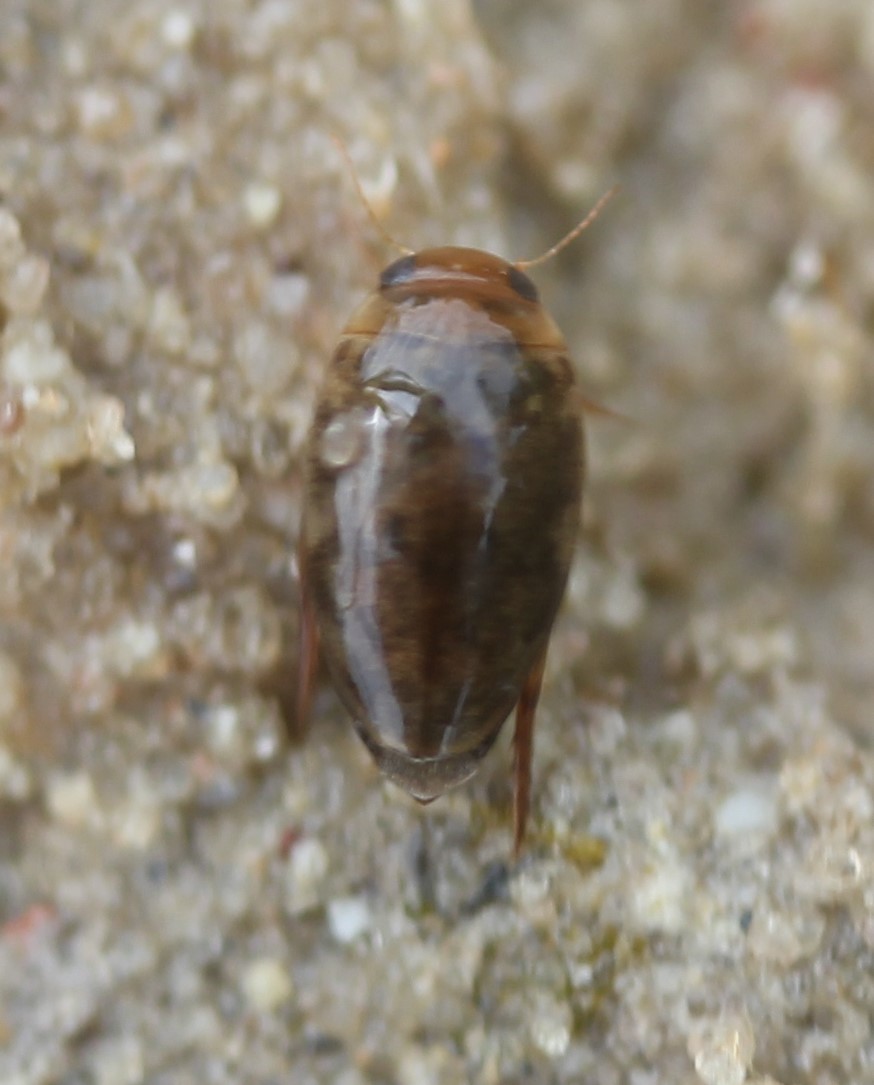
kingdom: Animalia
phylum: Arthropoda
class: Insecta
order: Coleoptera
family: Dytiscidae
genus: Laccophilus
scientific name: Laccophilus proximus
